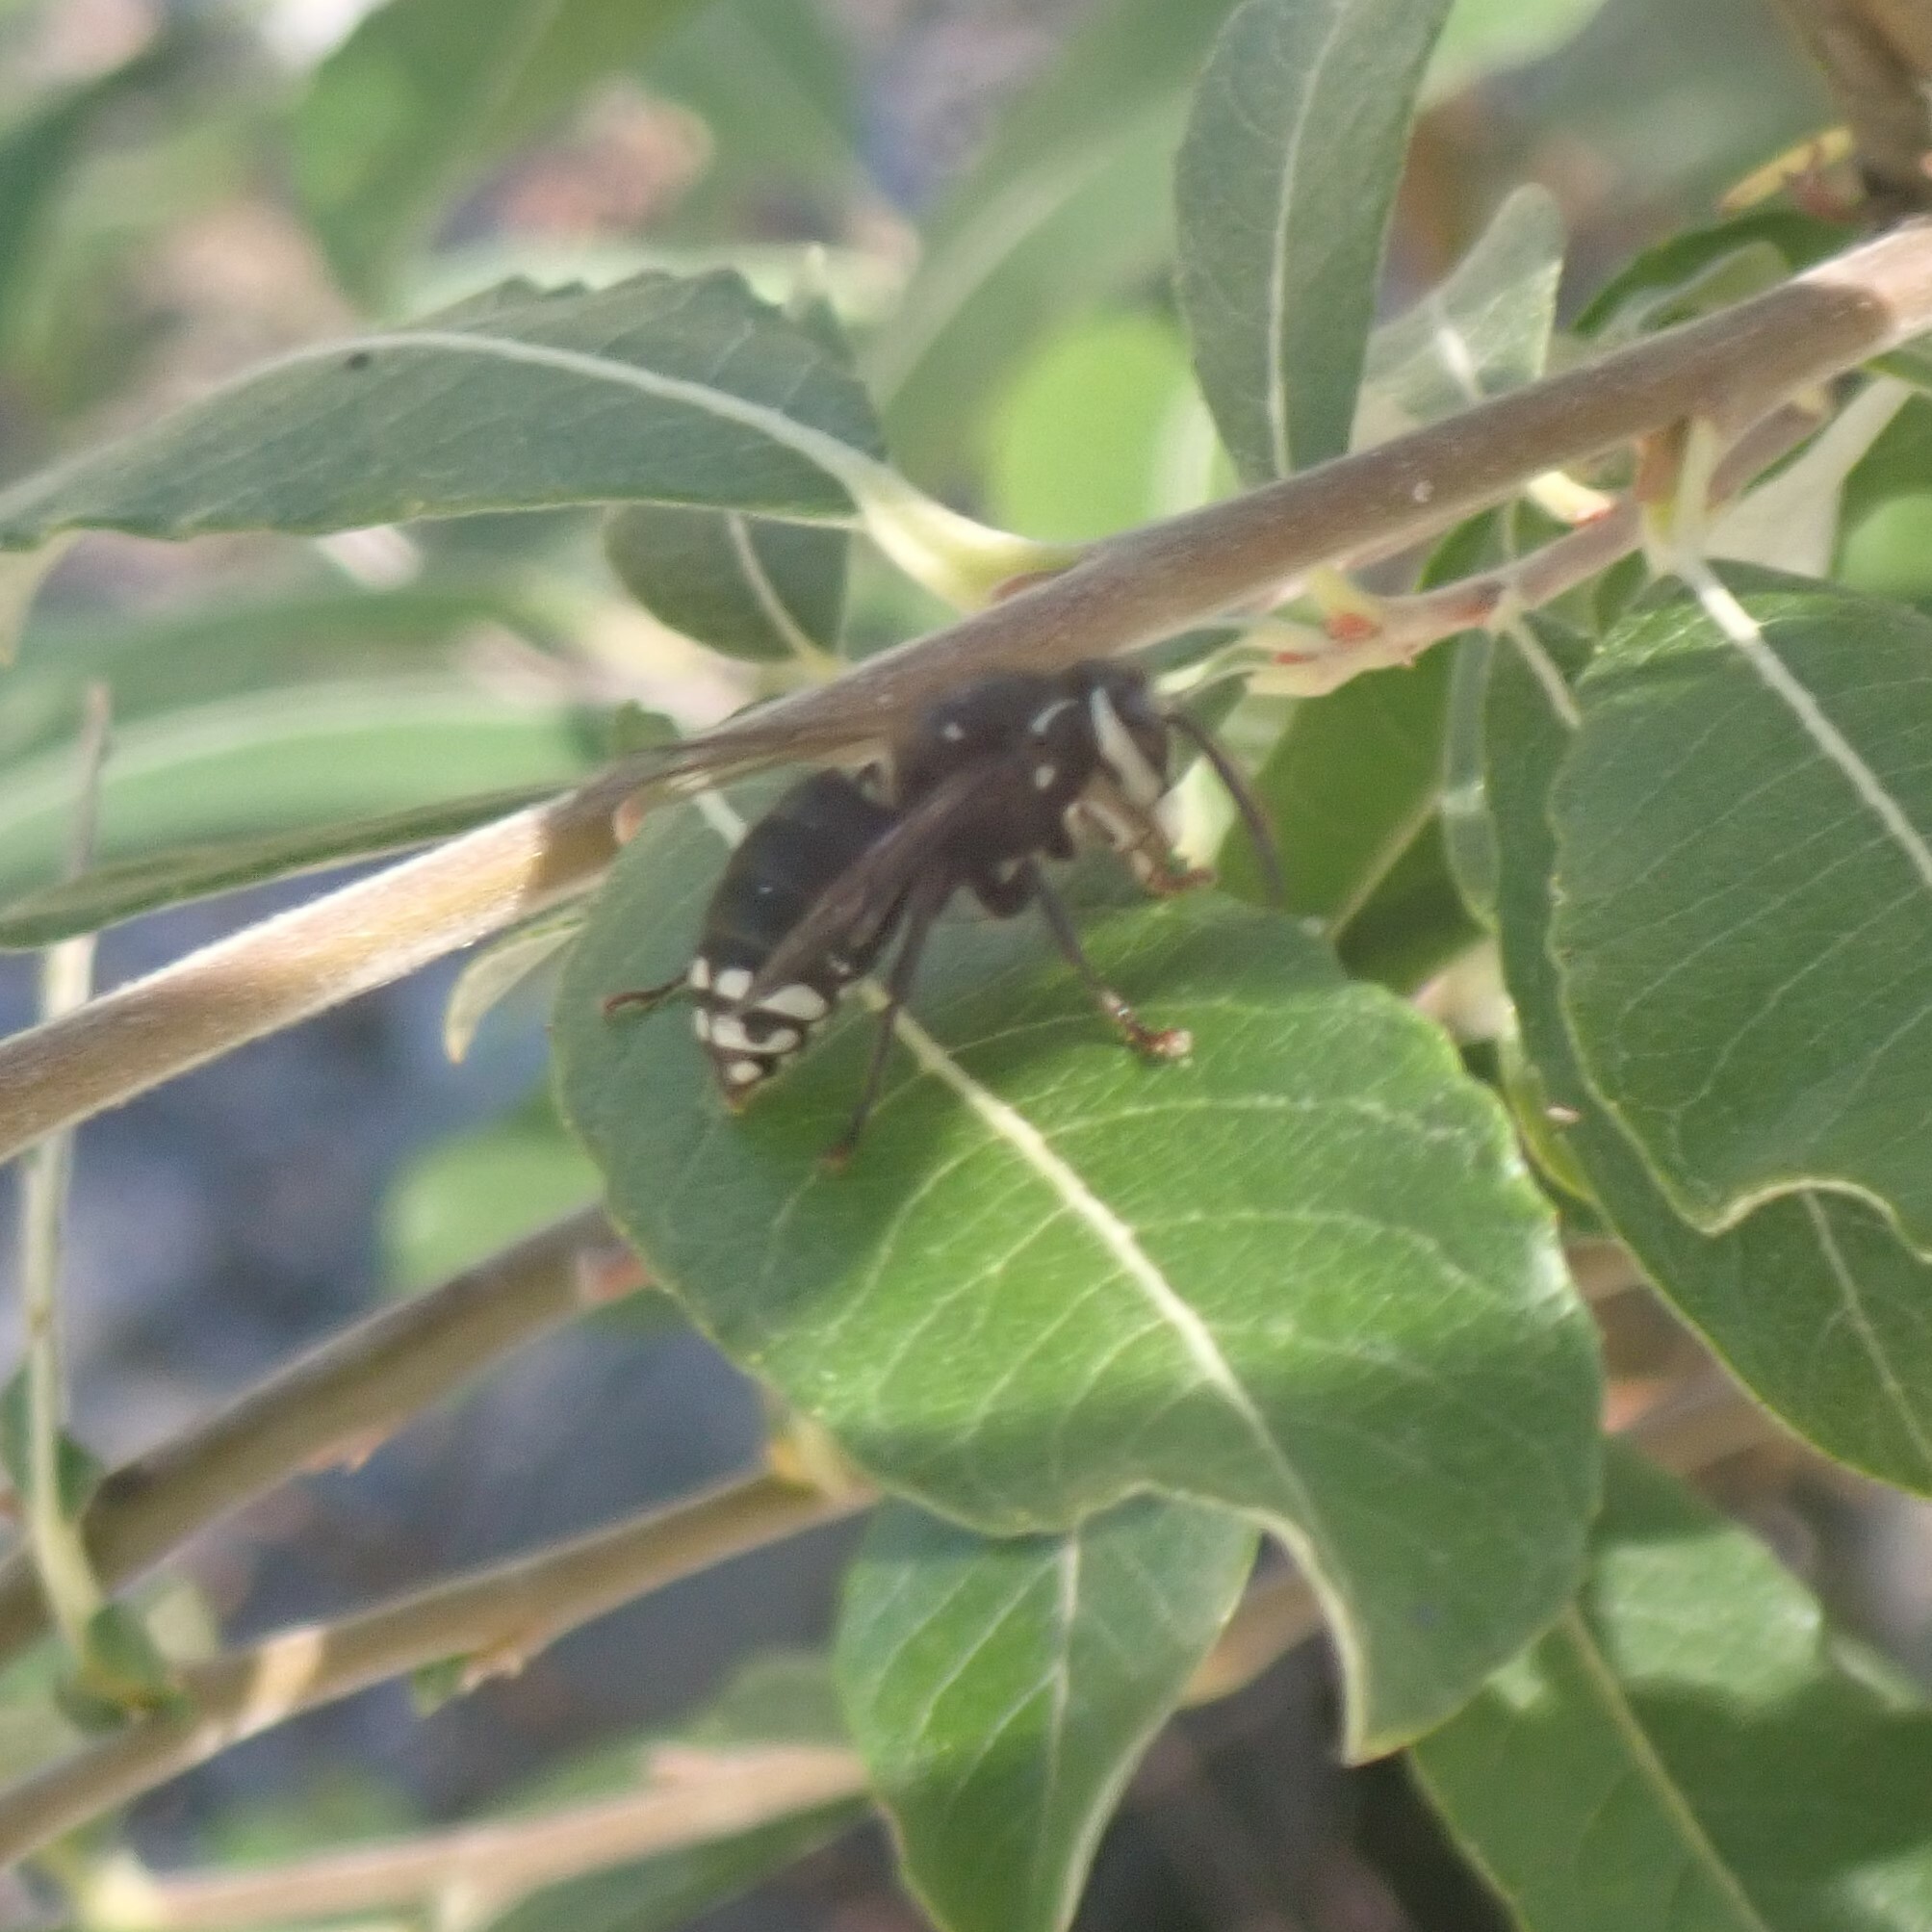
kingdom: Animalia
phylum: Arthropoda
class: Insecta
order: Hymenoptera
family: Vespidae
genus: Dolichovespula
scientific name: Dolichovespula maculata
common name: Bald-faced hornet
